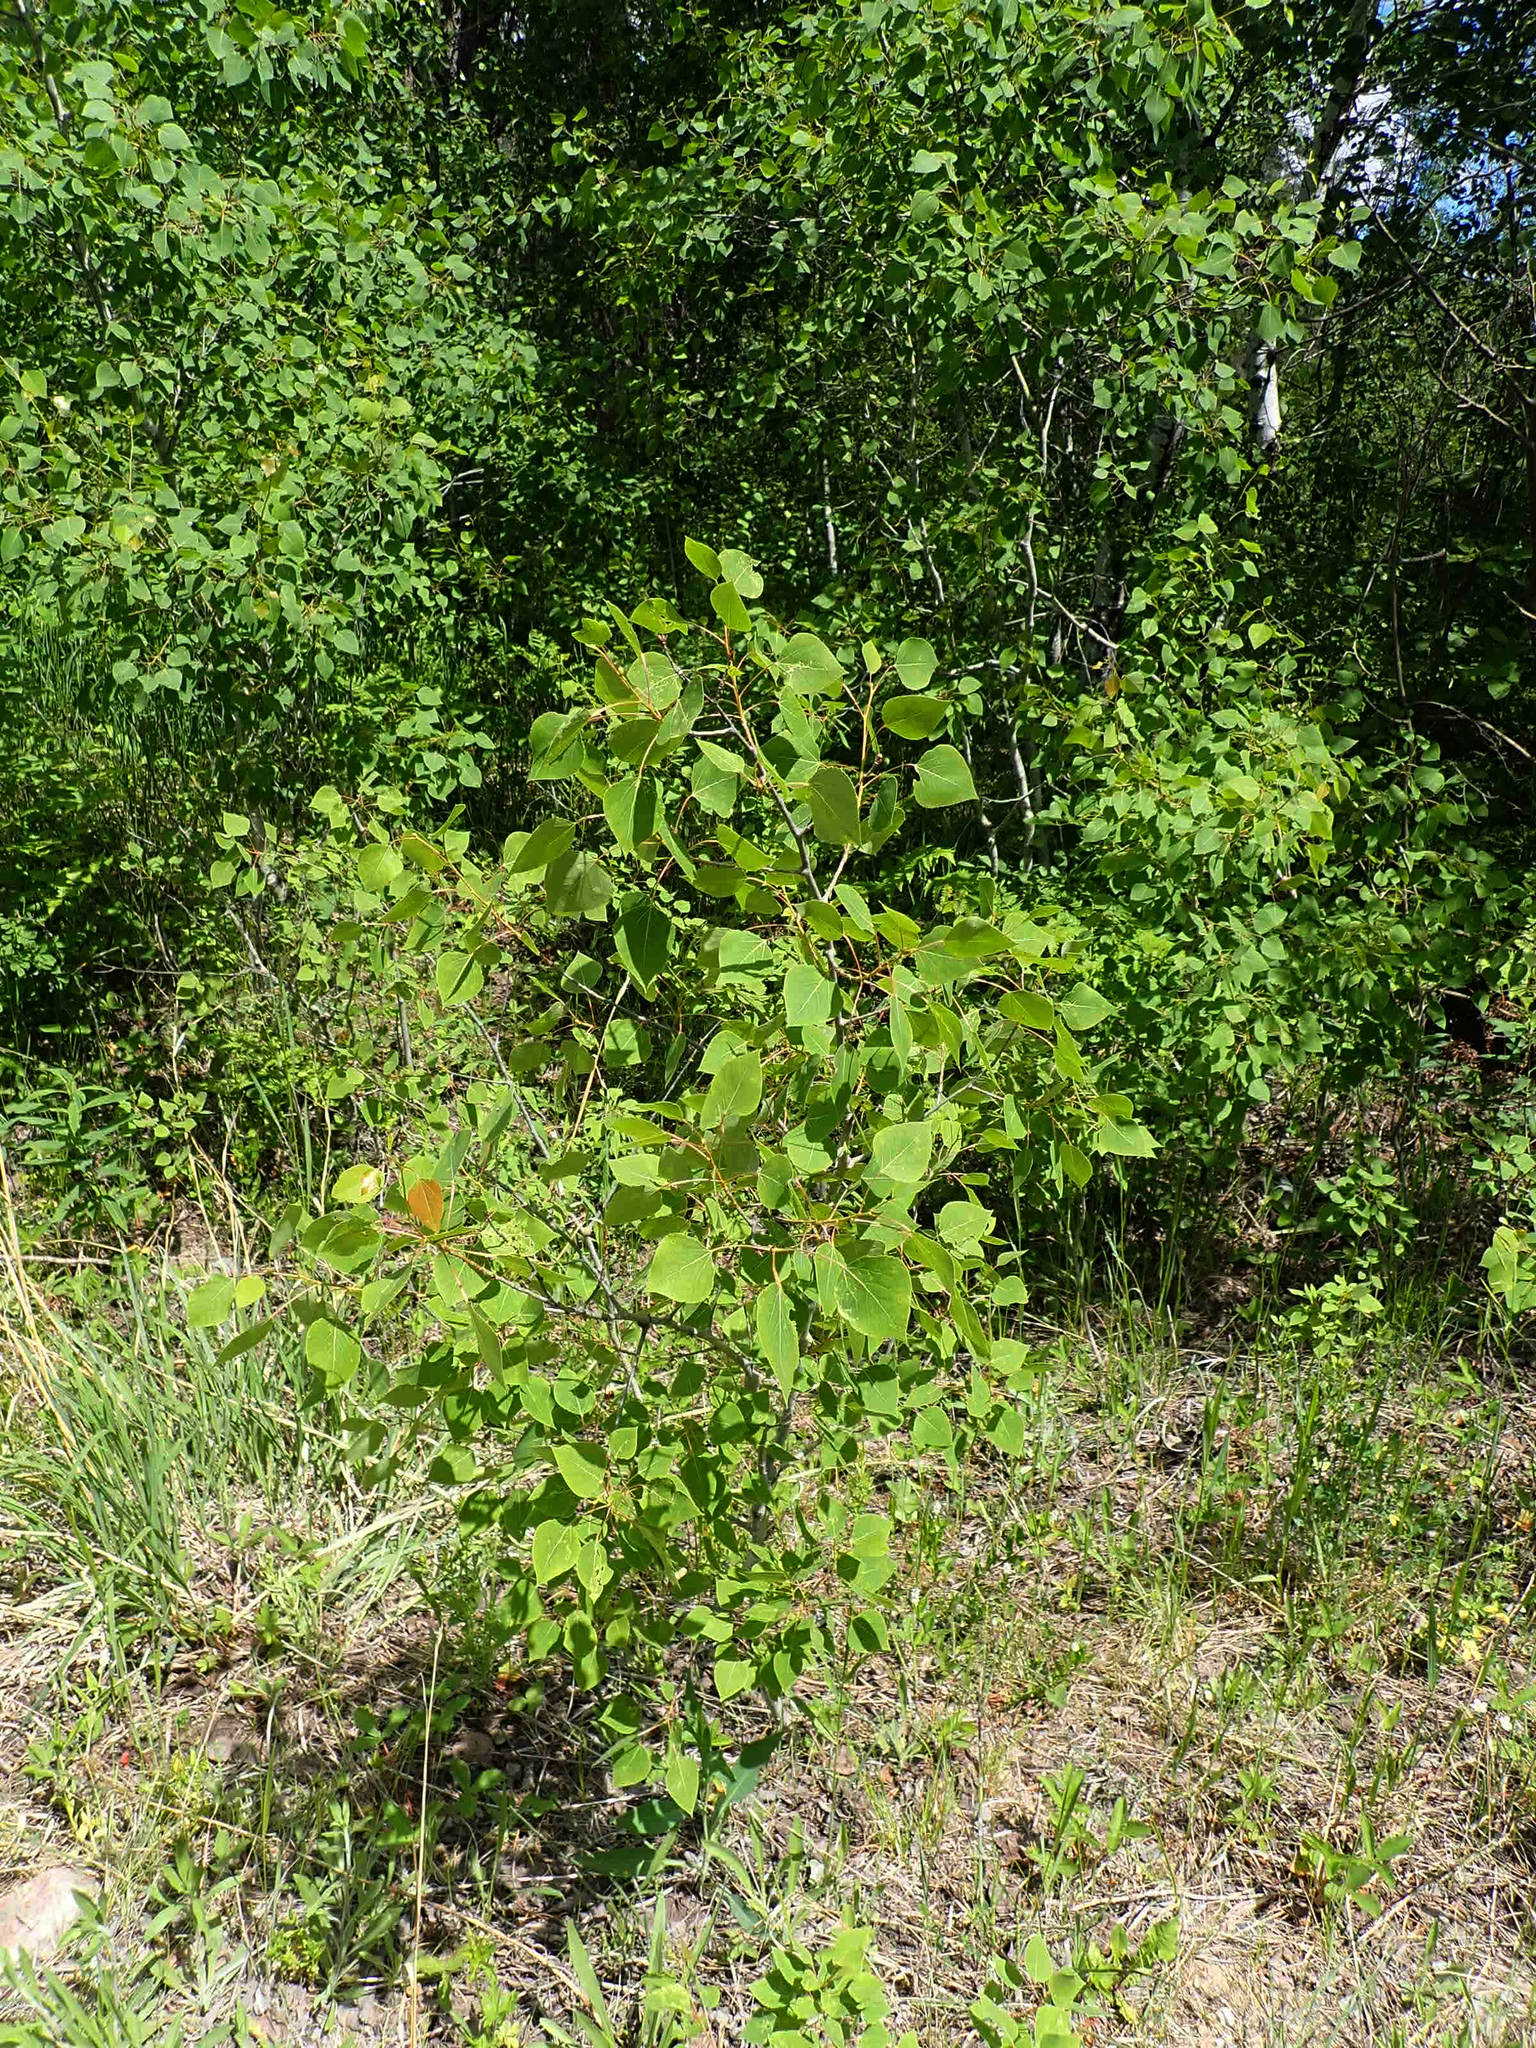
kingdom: Plantae
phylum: Tracheophyta
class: Magnoliopsida
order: Malpighiales
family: Salicaceae
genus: Populus
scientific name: Populus tremuloides
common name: Quaking aspen
